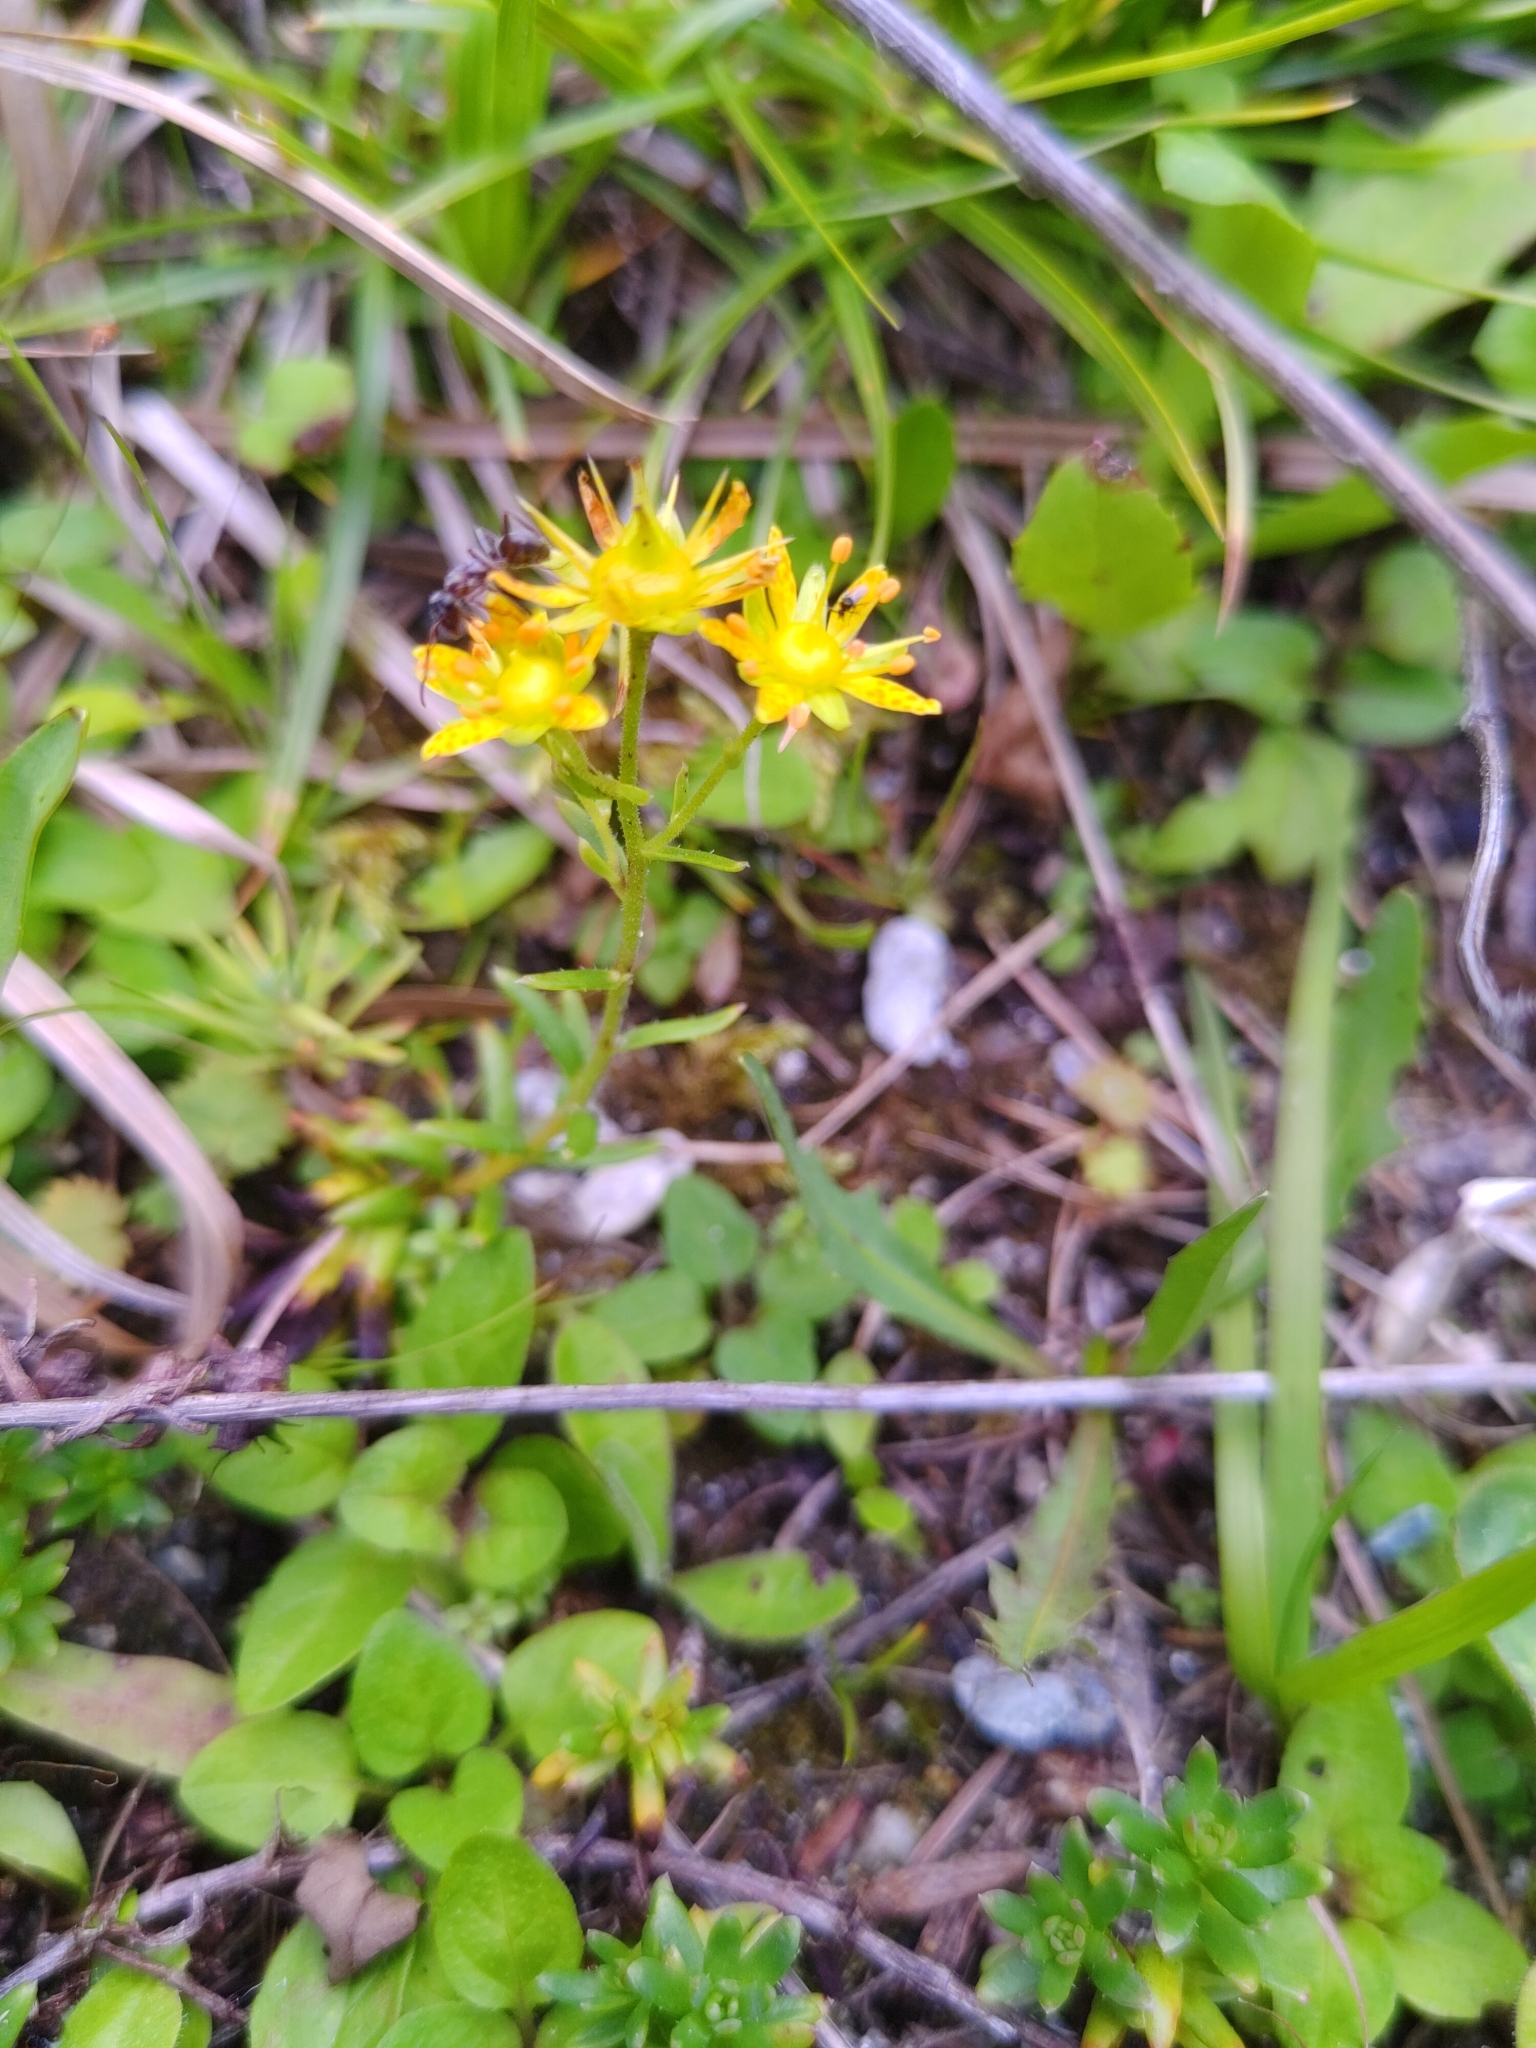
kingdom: Plantae
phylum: Tracheophyta
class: Magnoliopsida
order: Saxifragales
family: Saxifragaceae
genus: Saxifraga
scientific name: Saxifraga aizoides
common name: Yellow mountain saxifrage
